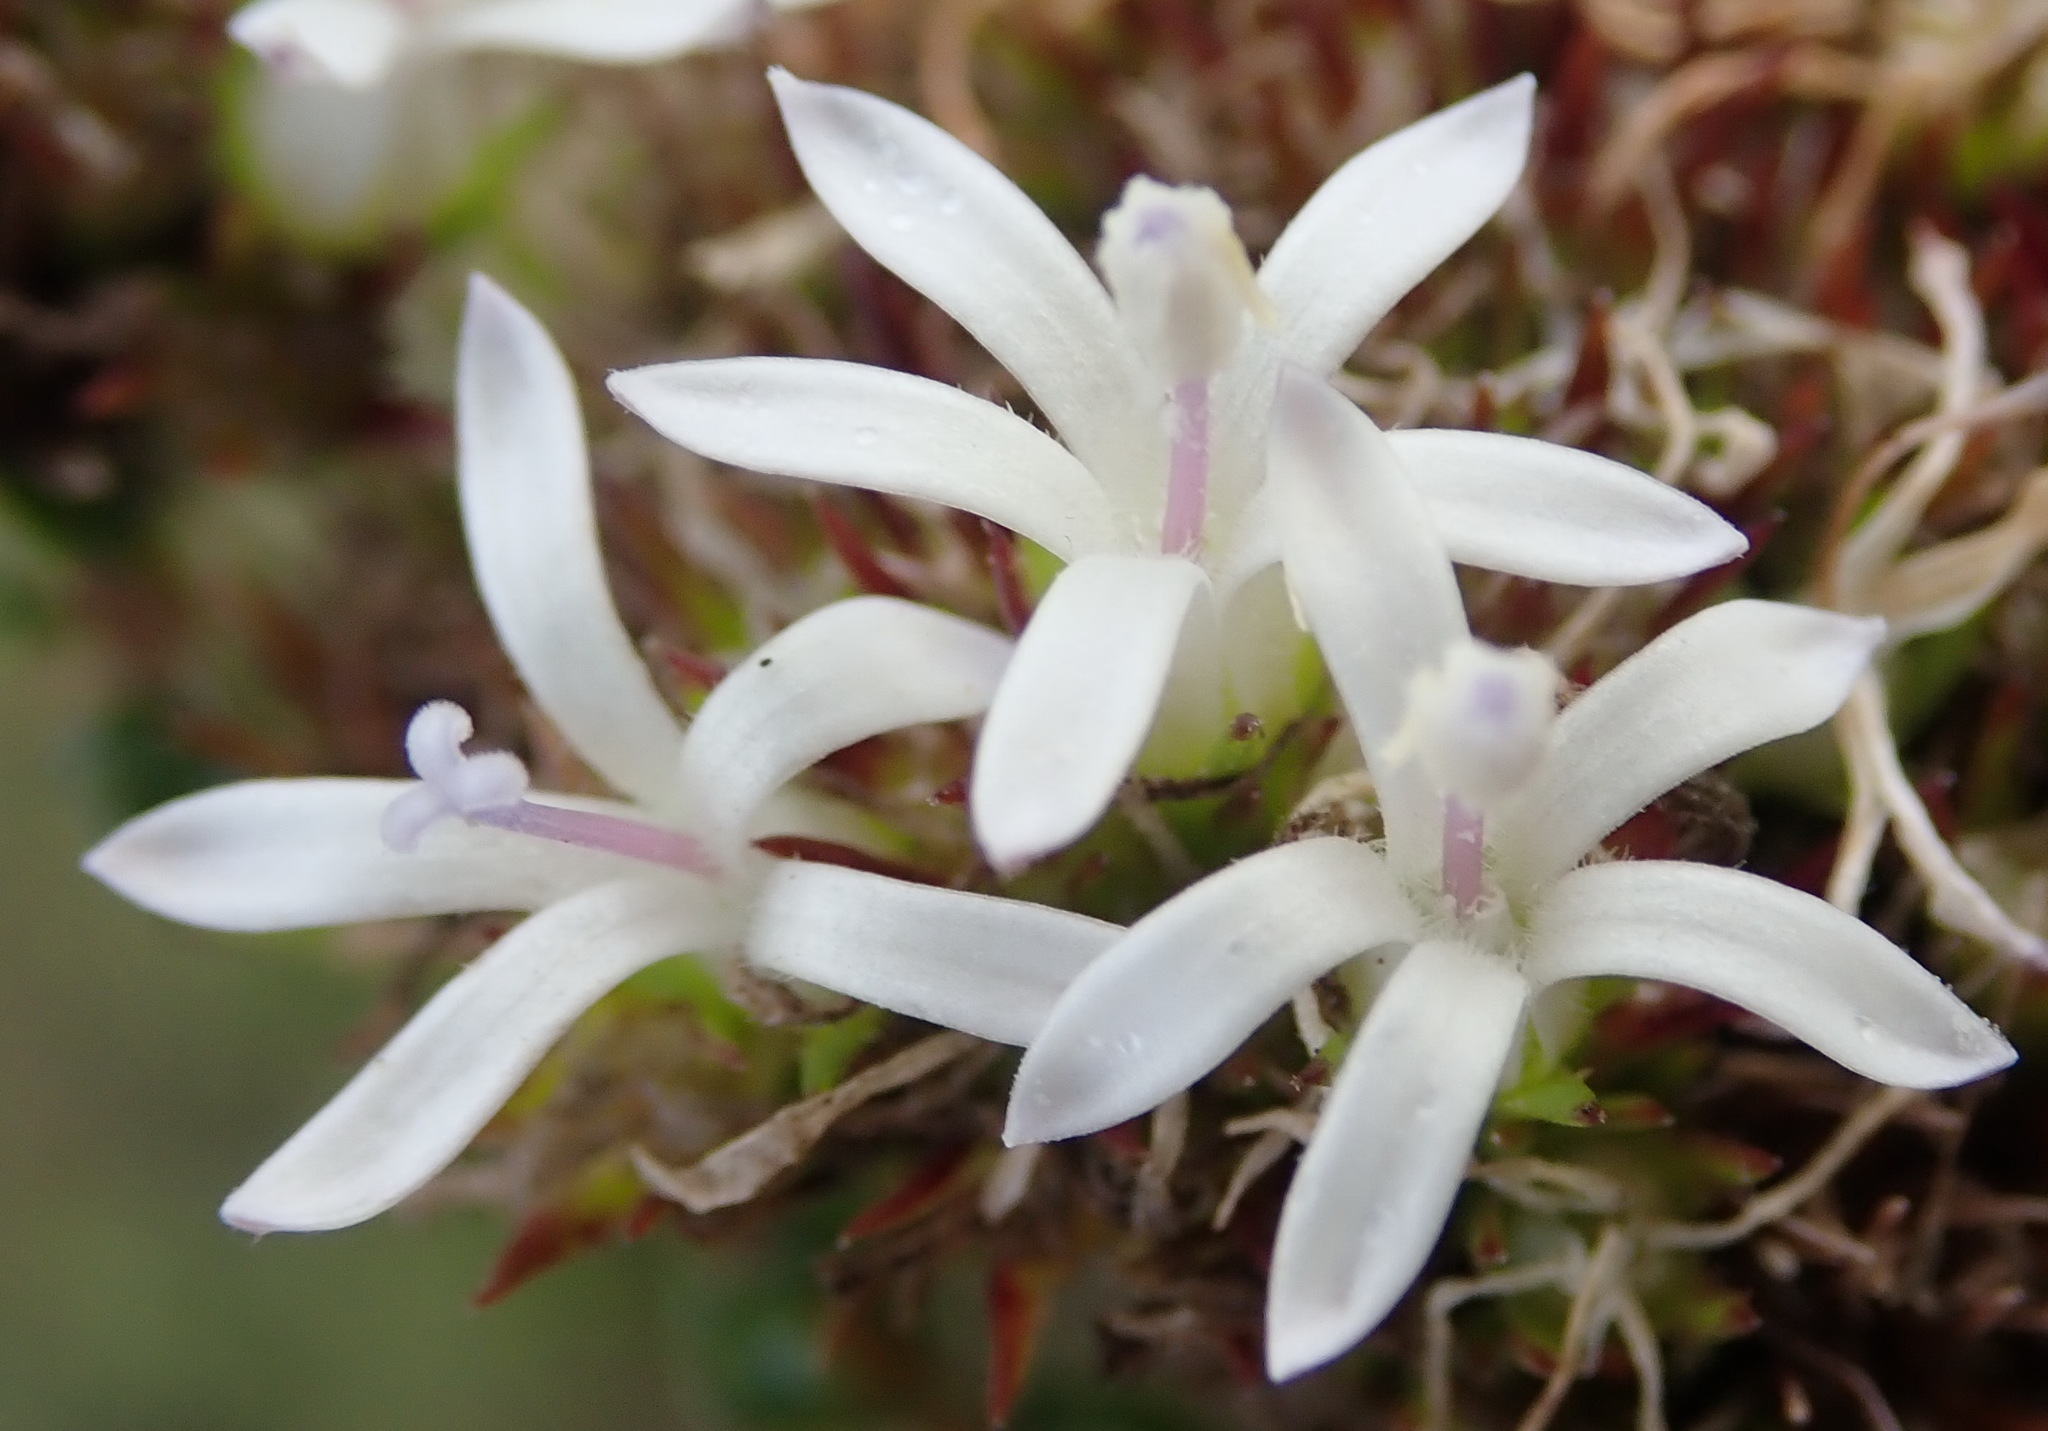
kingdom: Plantae
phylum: Tracheophyta
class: Magnoliopsida
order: Asterales
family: Campanulaceae
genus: Wahlenbergia
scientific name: Wahlenbergia desmantha
